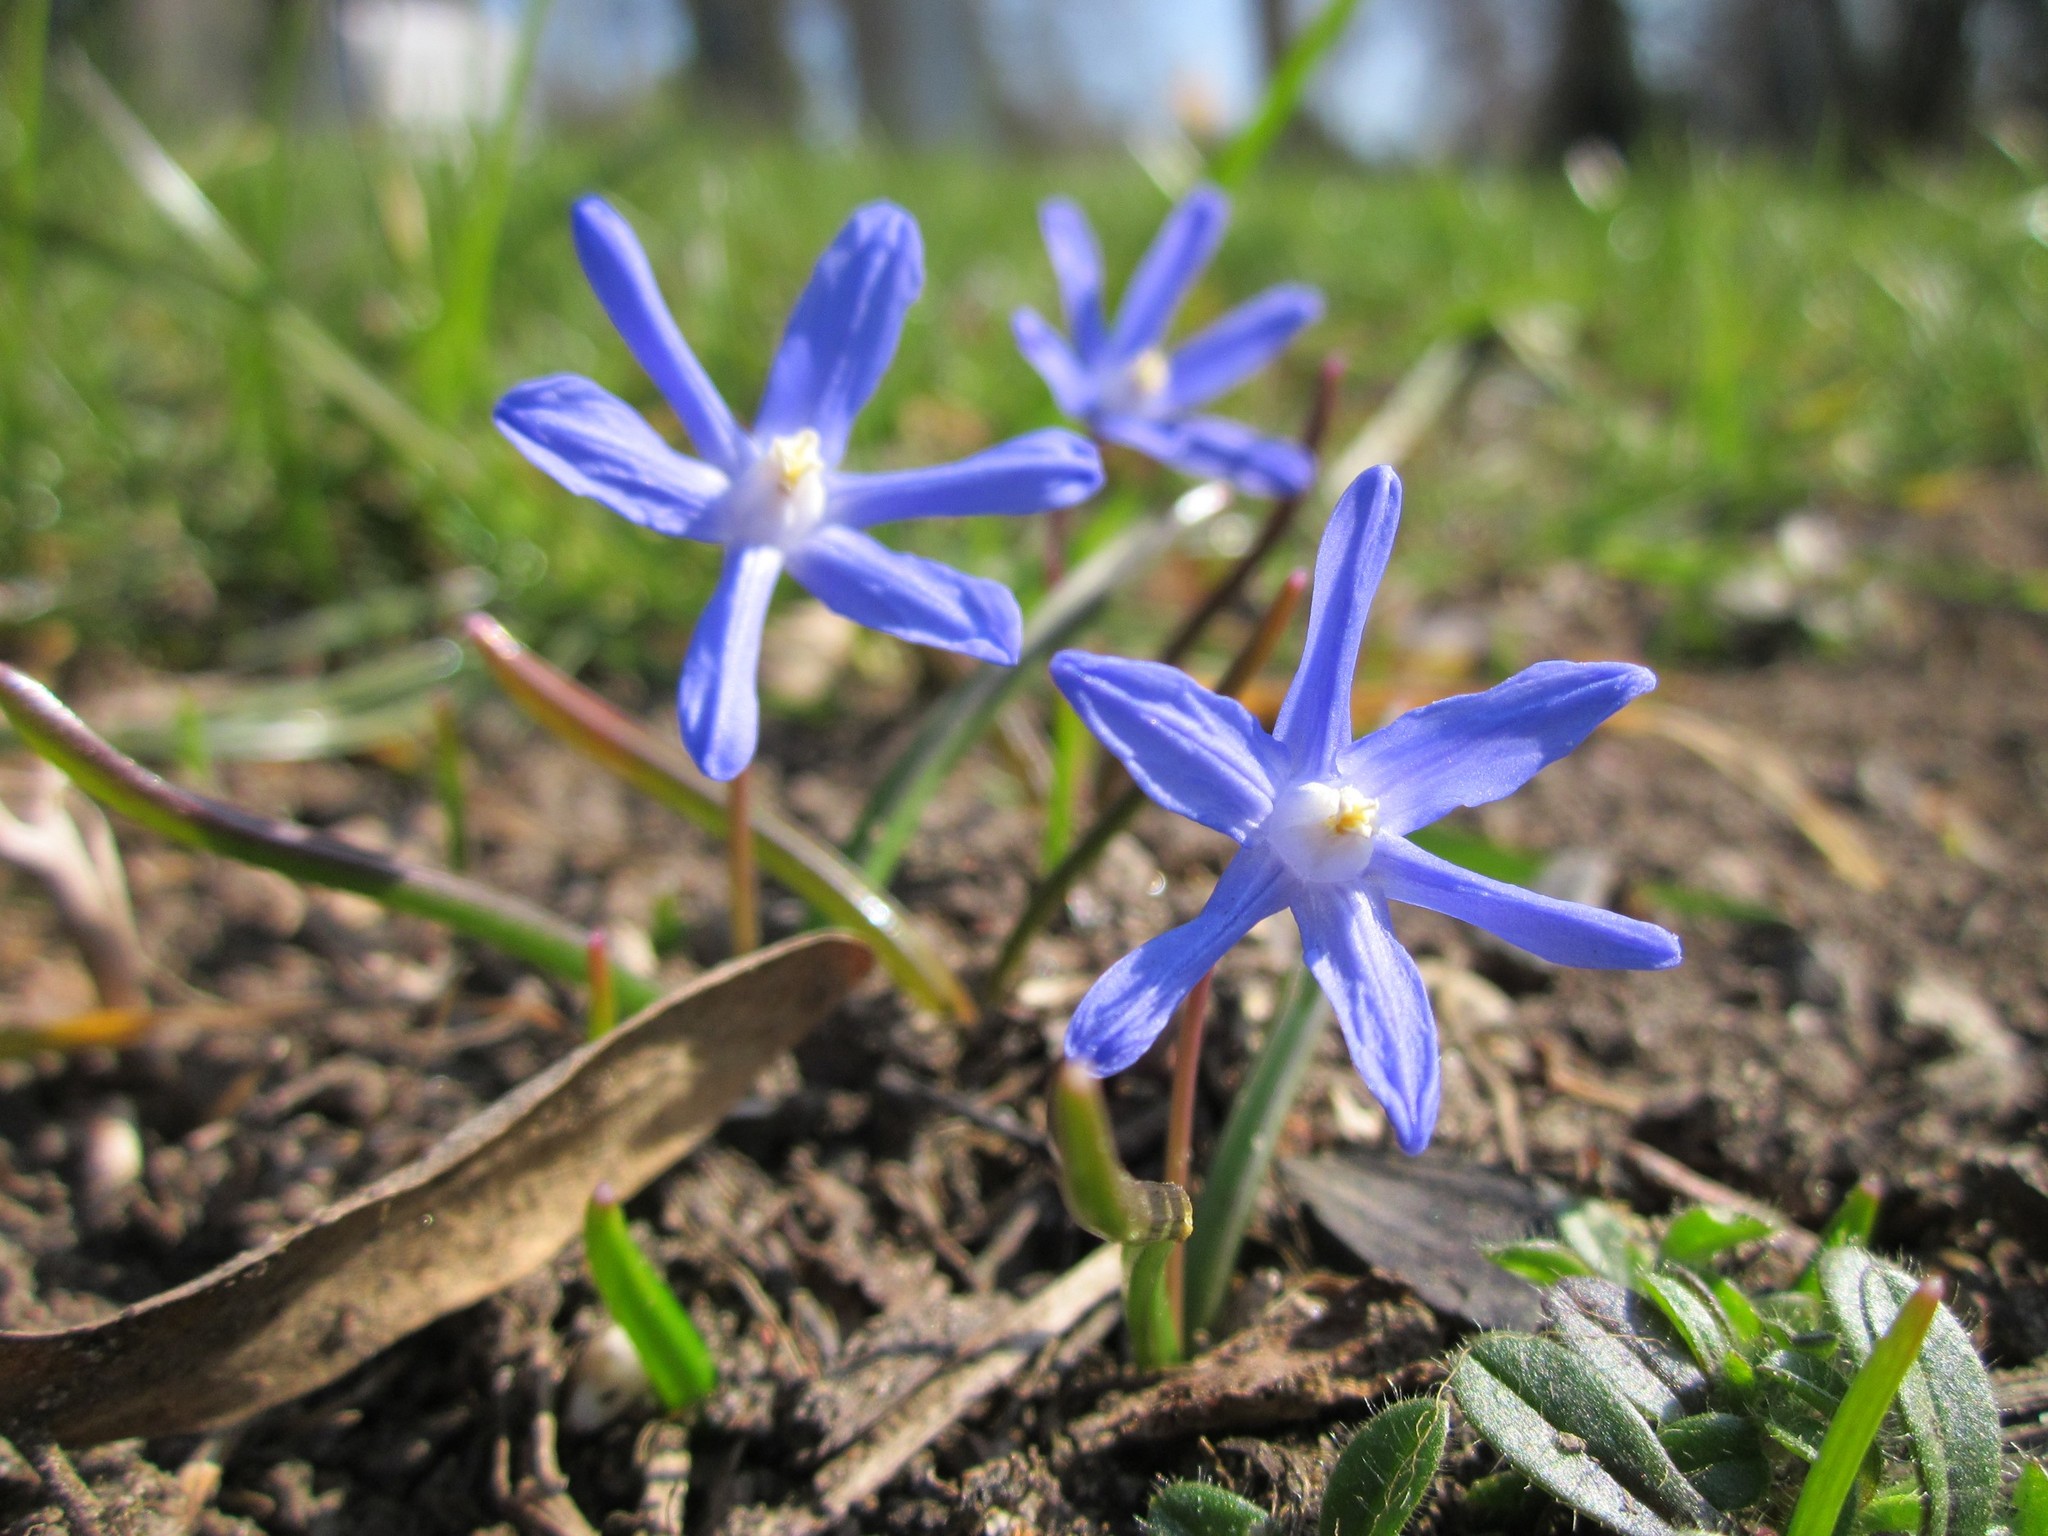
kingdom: Plantae
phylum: Tracheophyta
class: Liliopsida
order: Asparagales
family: Asparagaceae
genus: Scilla
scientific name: Scilla luciliae
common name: Boissier's glory-of-the-snow
